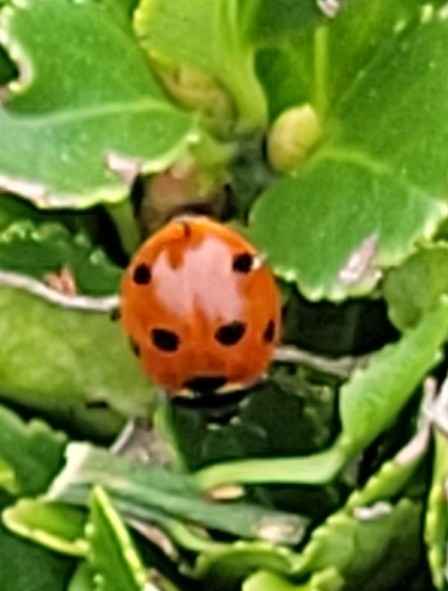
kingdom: Animalia
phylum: Arthropoda
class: Insecta
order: Coleoptera
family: Coccinellidae
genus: Coccinella
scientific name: Coccinella septempunctata
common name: Sevenspotted lady beetle
